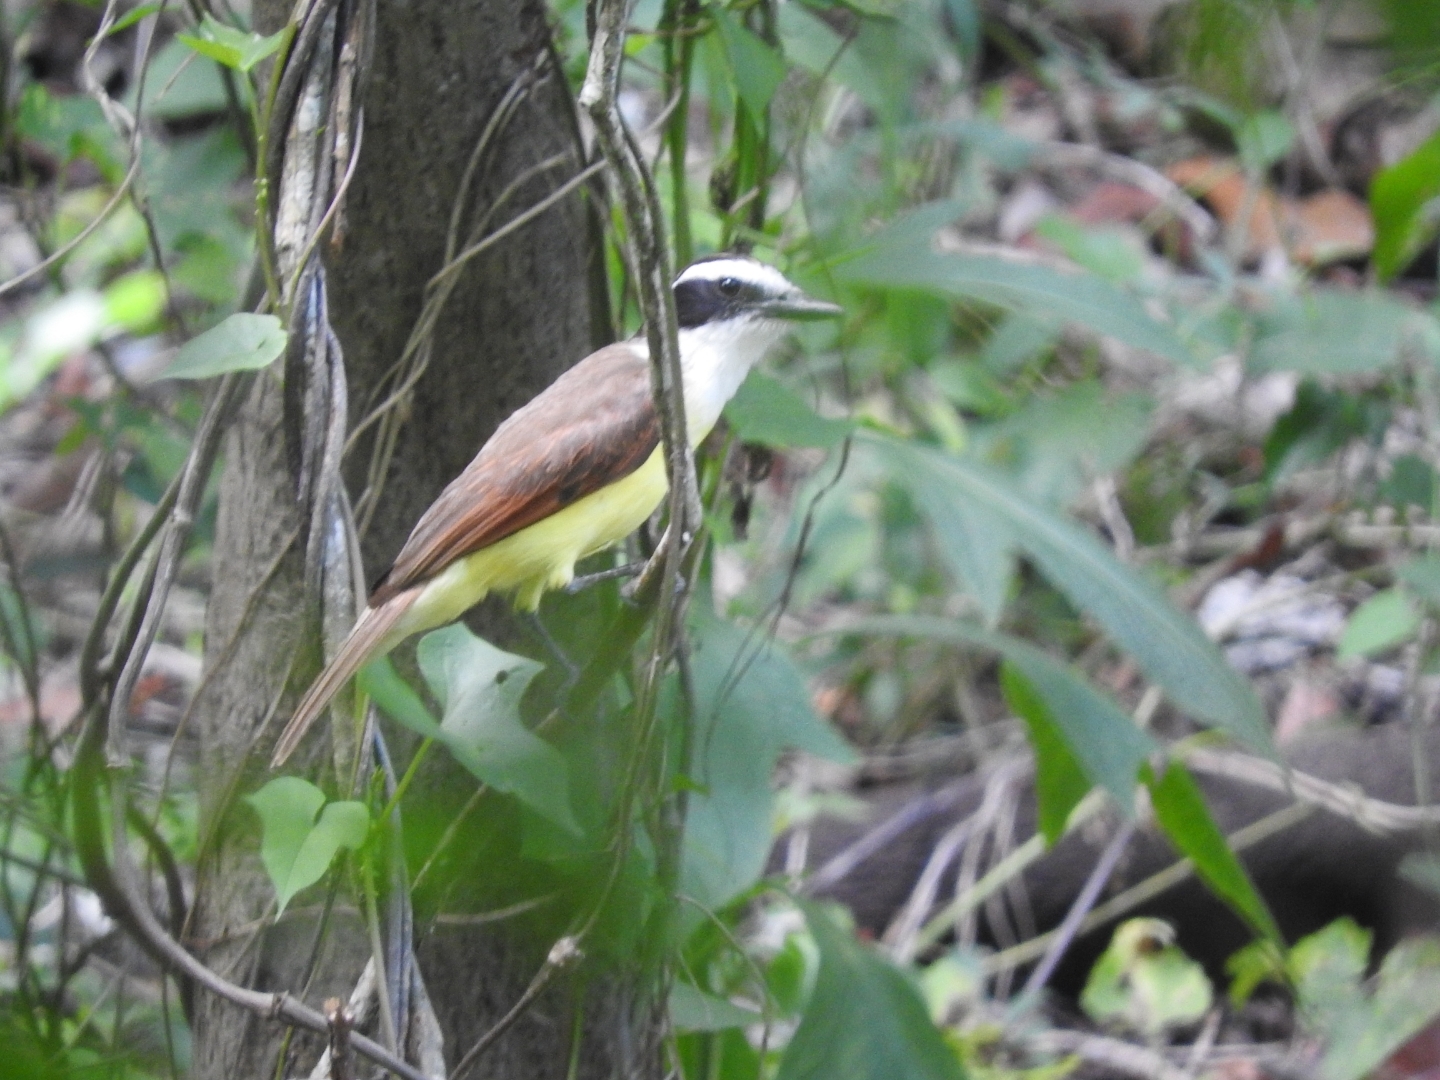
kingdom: Animalia
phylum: Chordata
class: Aves
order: Passeriformes
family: Tyrannidae
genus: Pitangus
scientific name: Pitangus sulphuratus
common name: Great kiskadee
